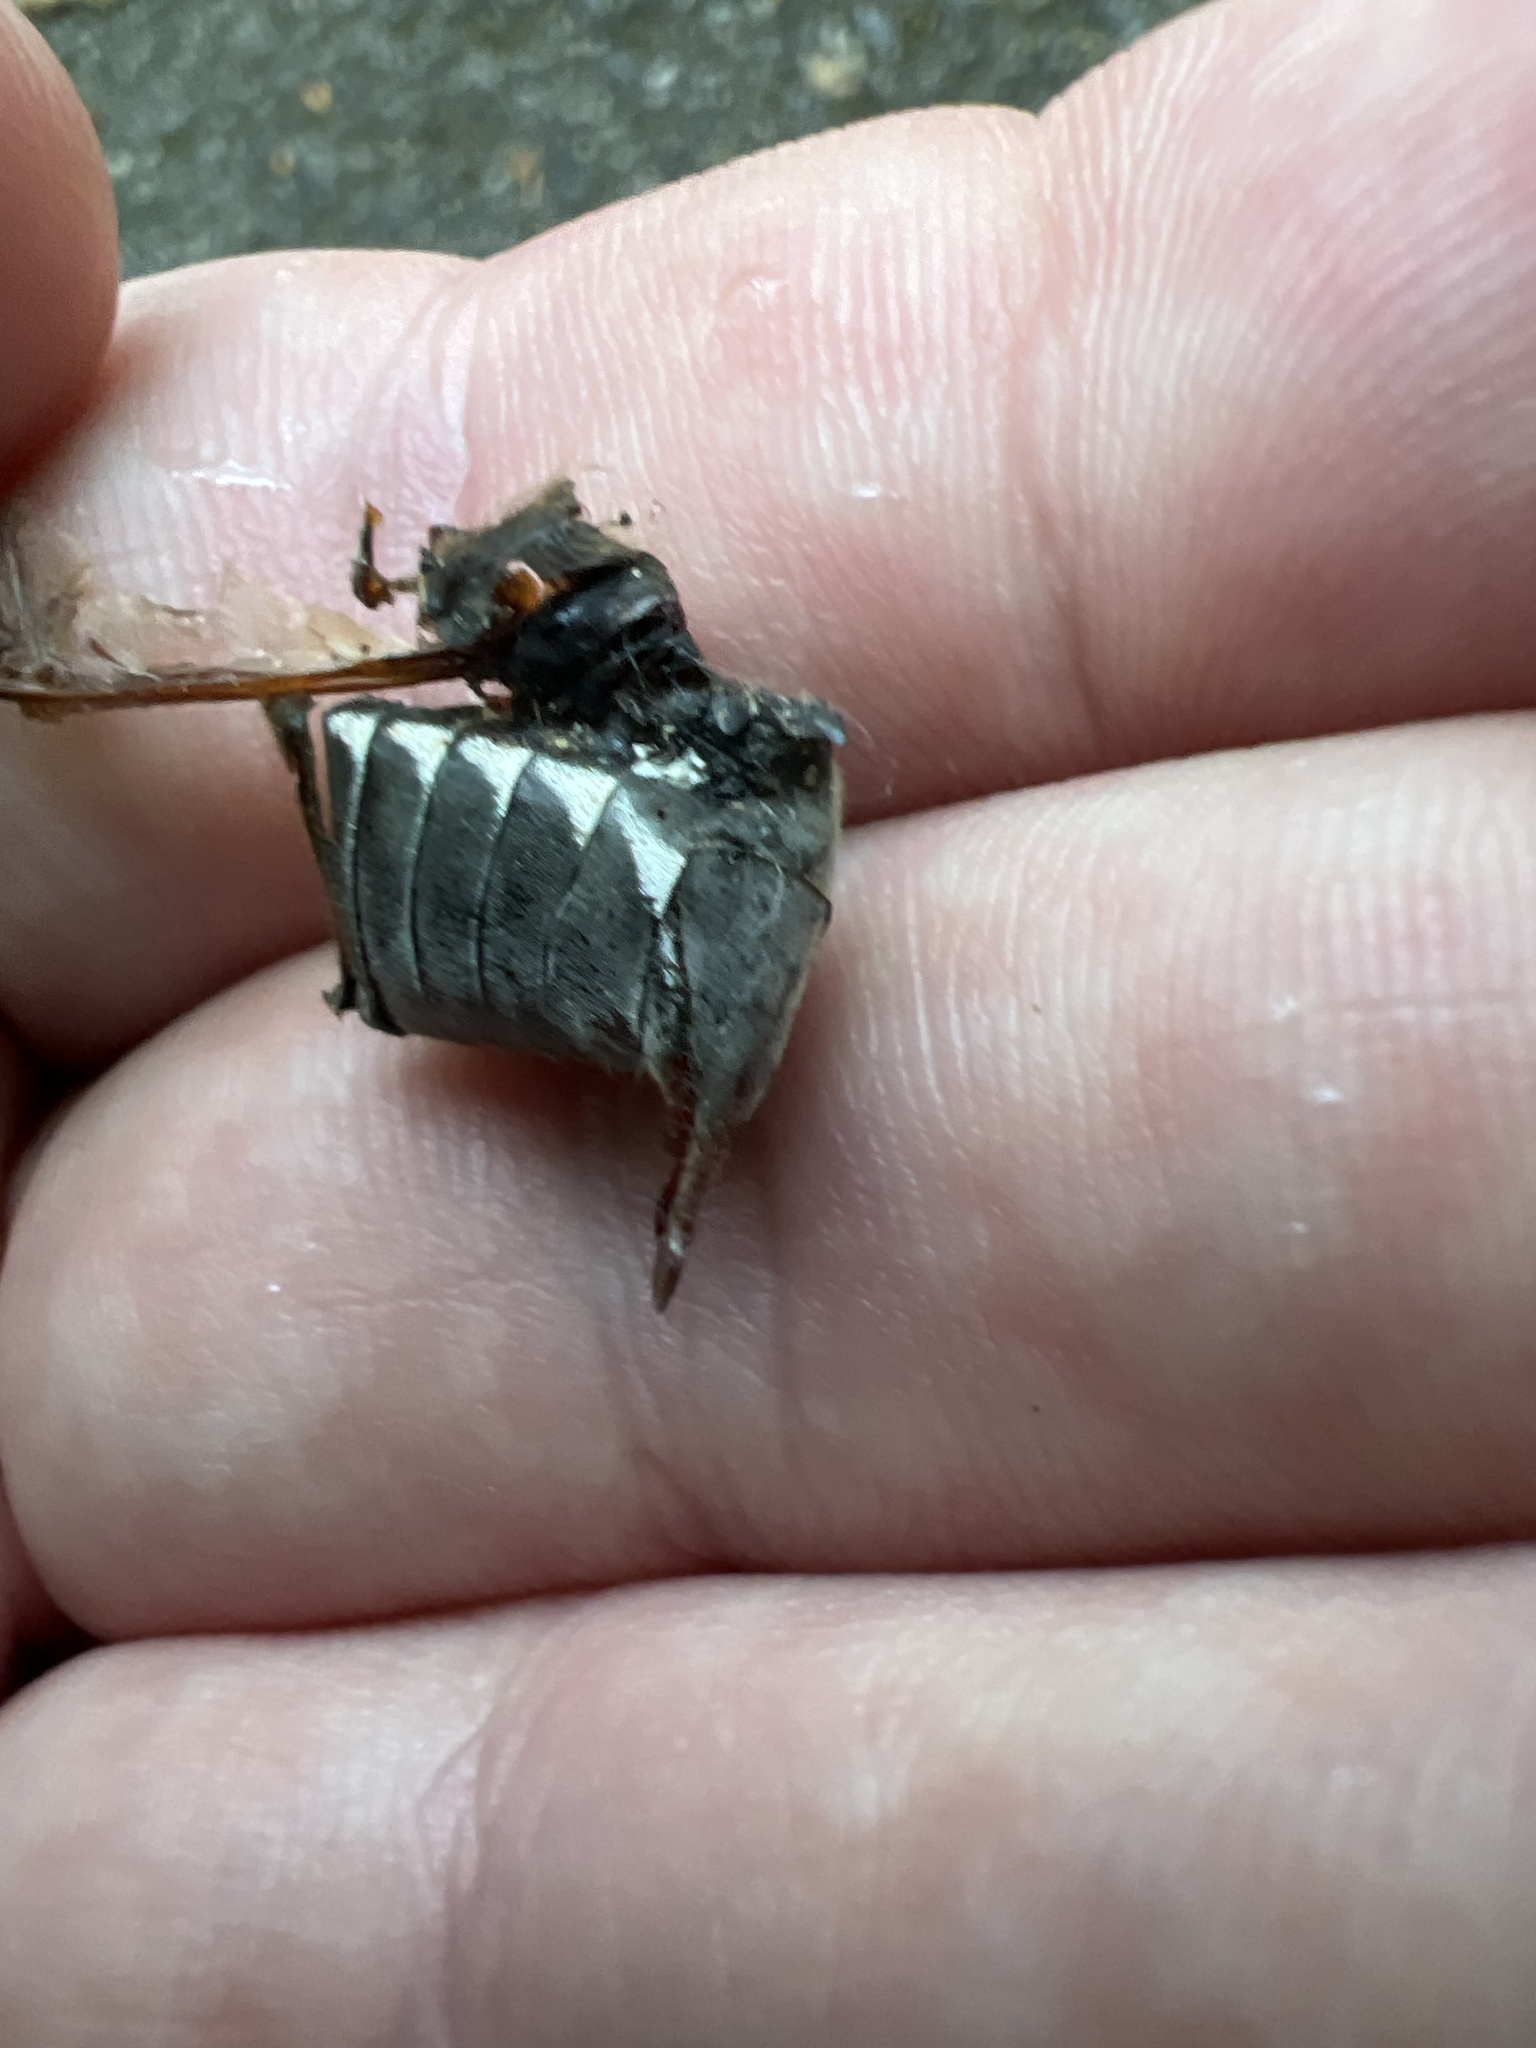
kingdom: Animalia
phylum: Arthropoda
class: Insecta
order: Coleoptera
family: Scarabaeidae
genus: Melolontha
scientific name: Melolontha melolontha
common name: Cockchafer maybeetle
